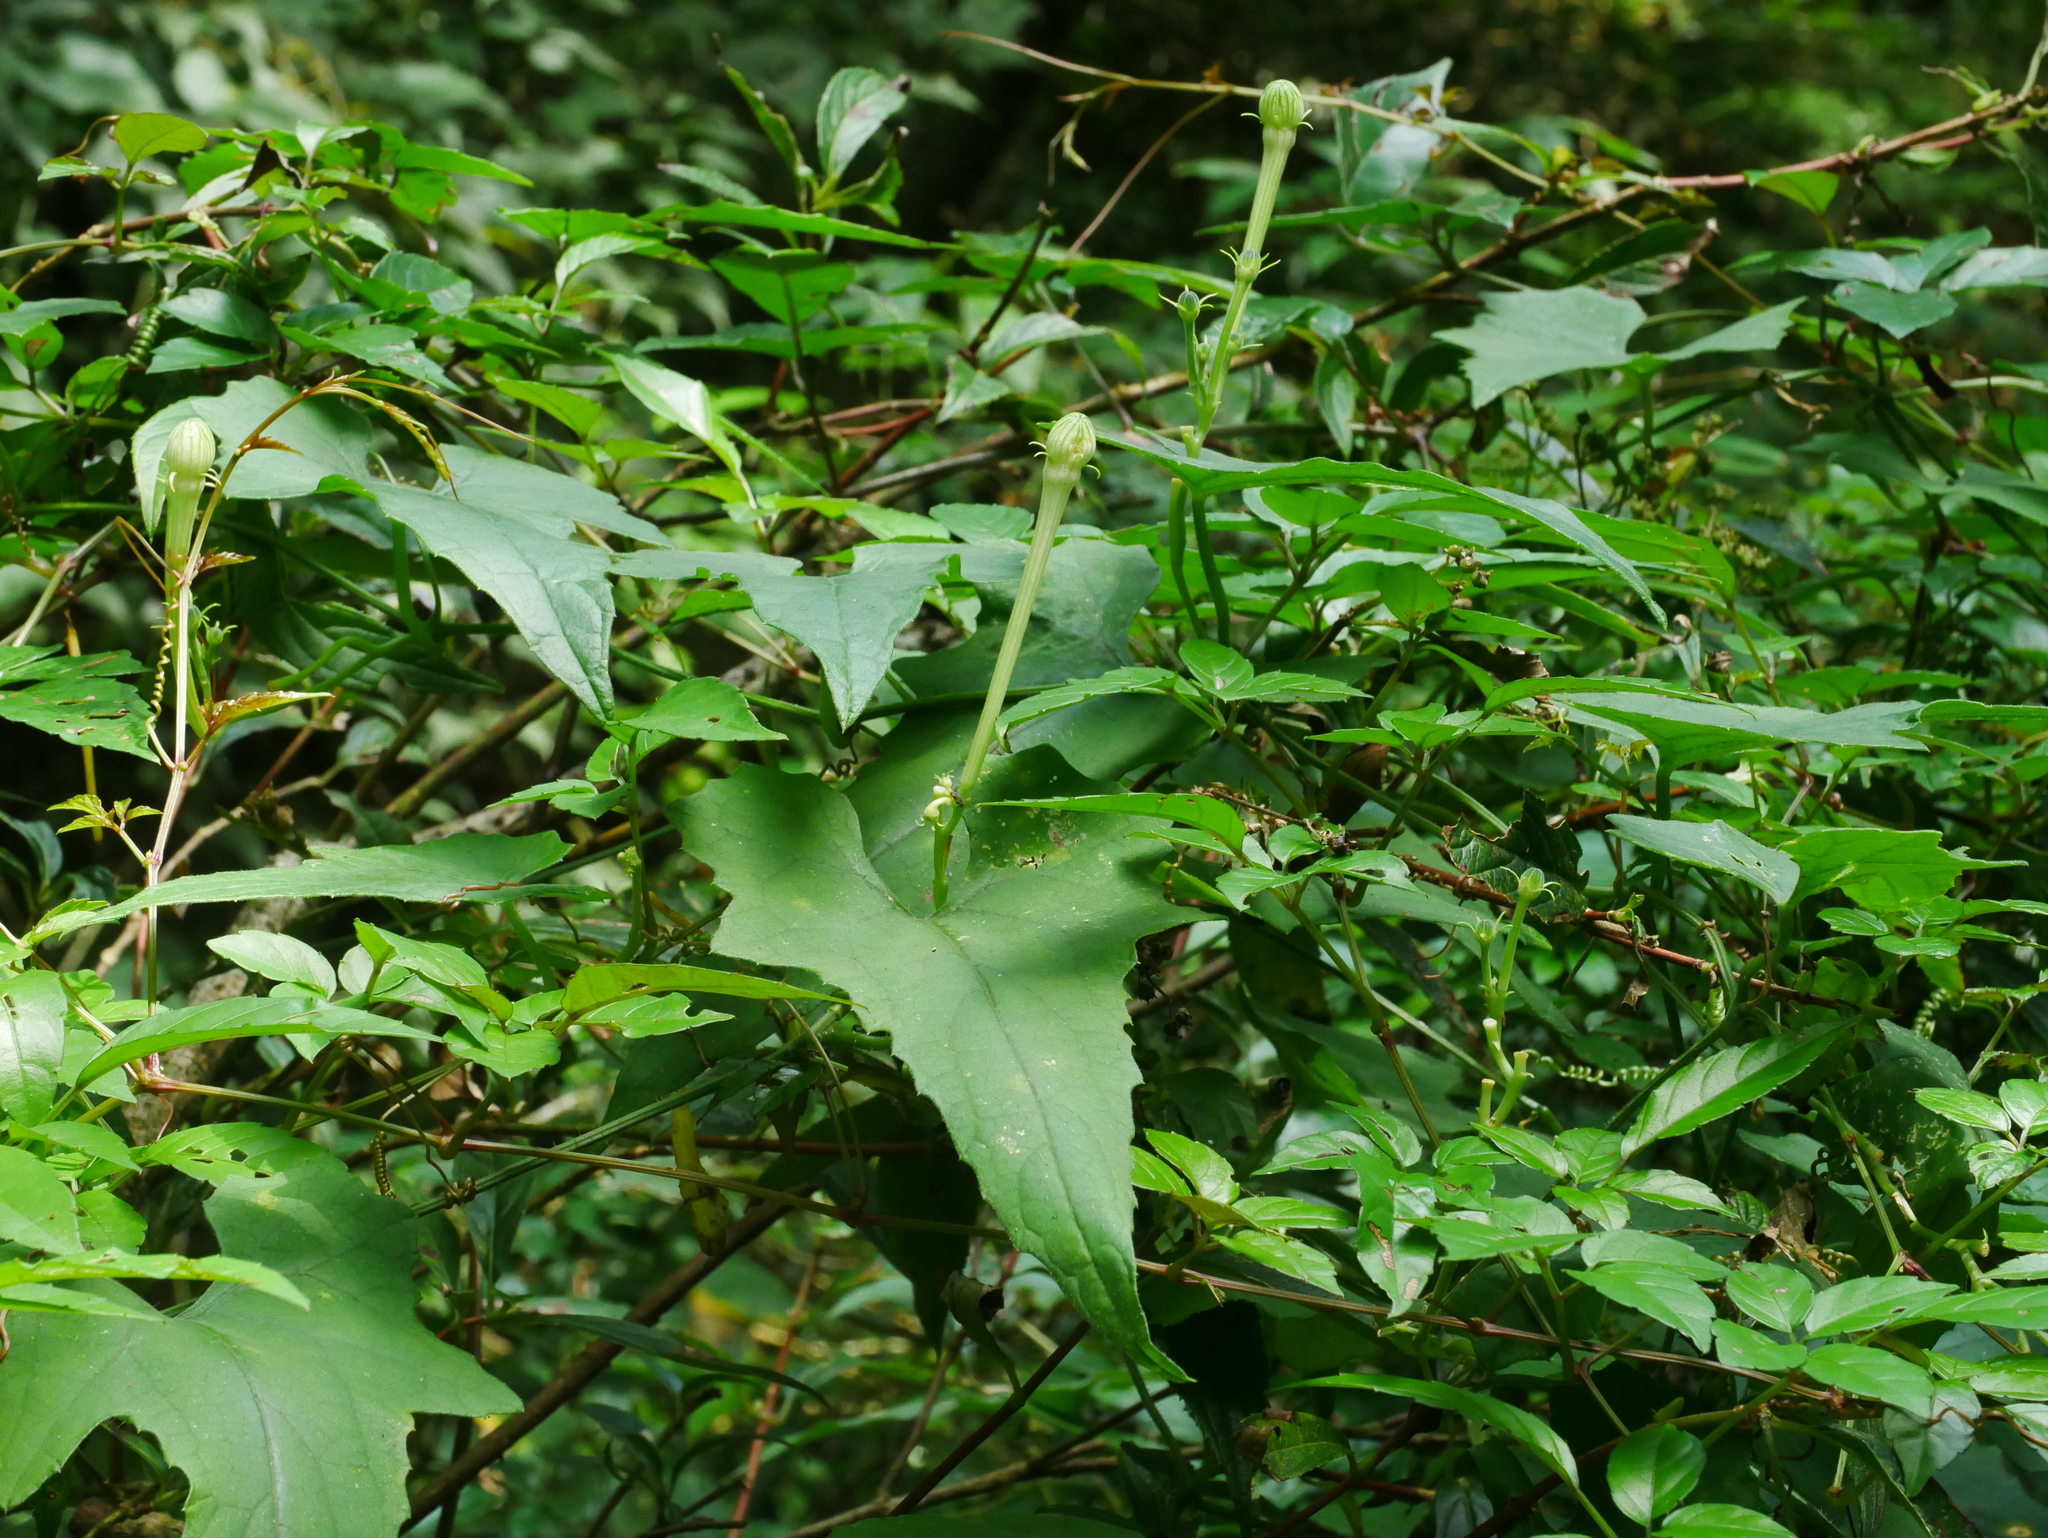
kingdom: Plantae
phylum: Tracheophyta
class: Magnoliopsida
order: Cucurbitales
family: Cucurbitaceae
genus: Trichosanthes
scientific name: Trichosanthes cucumeroides
